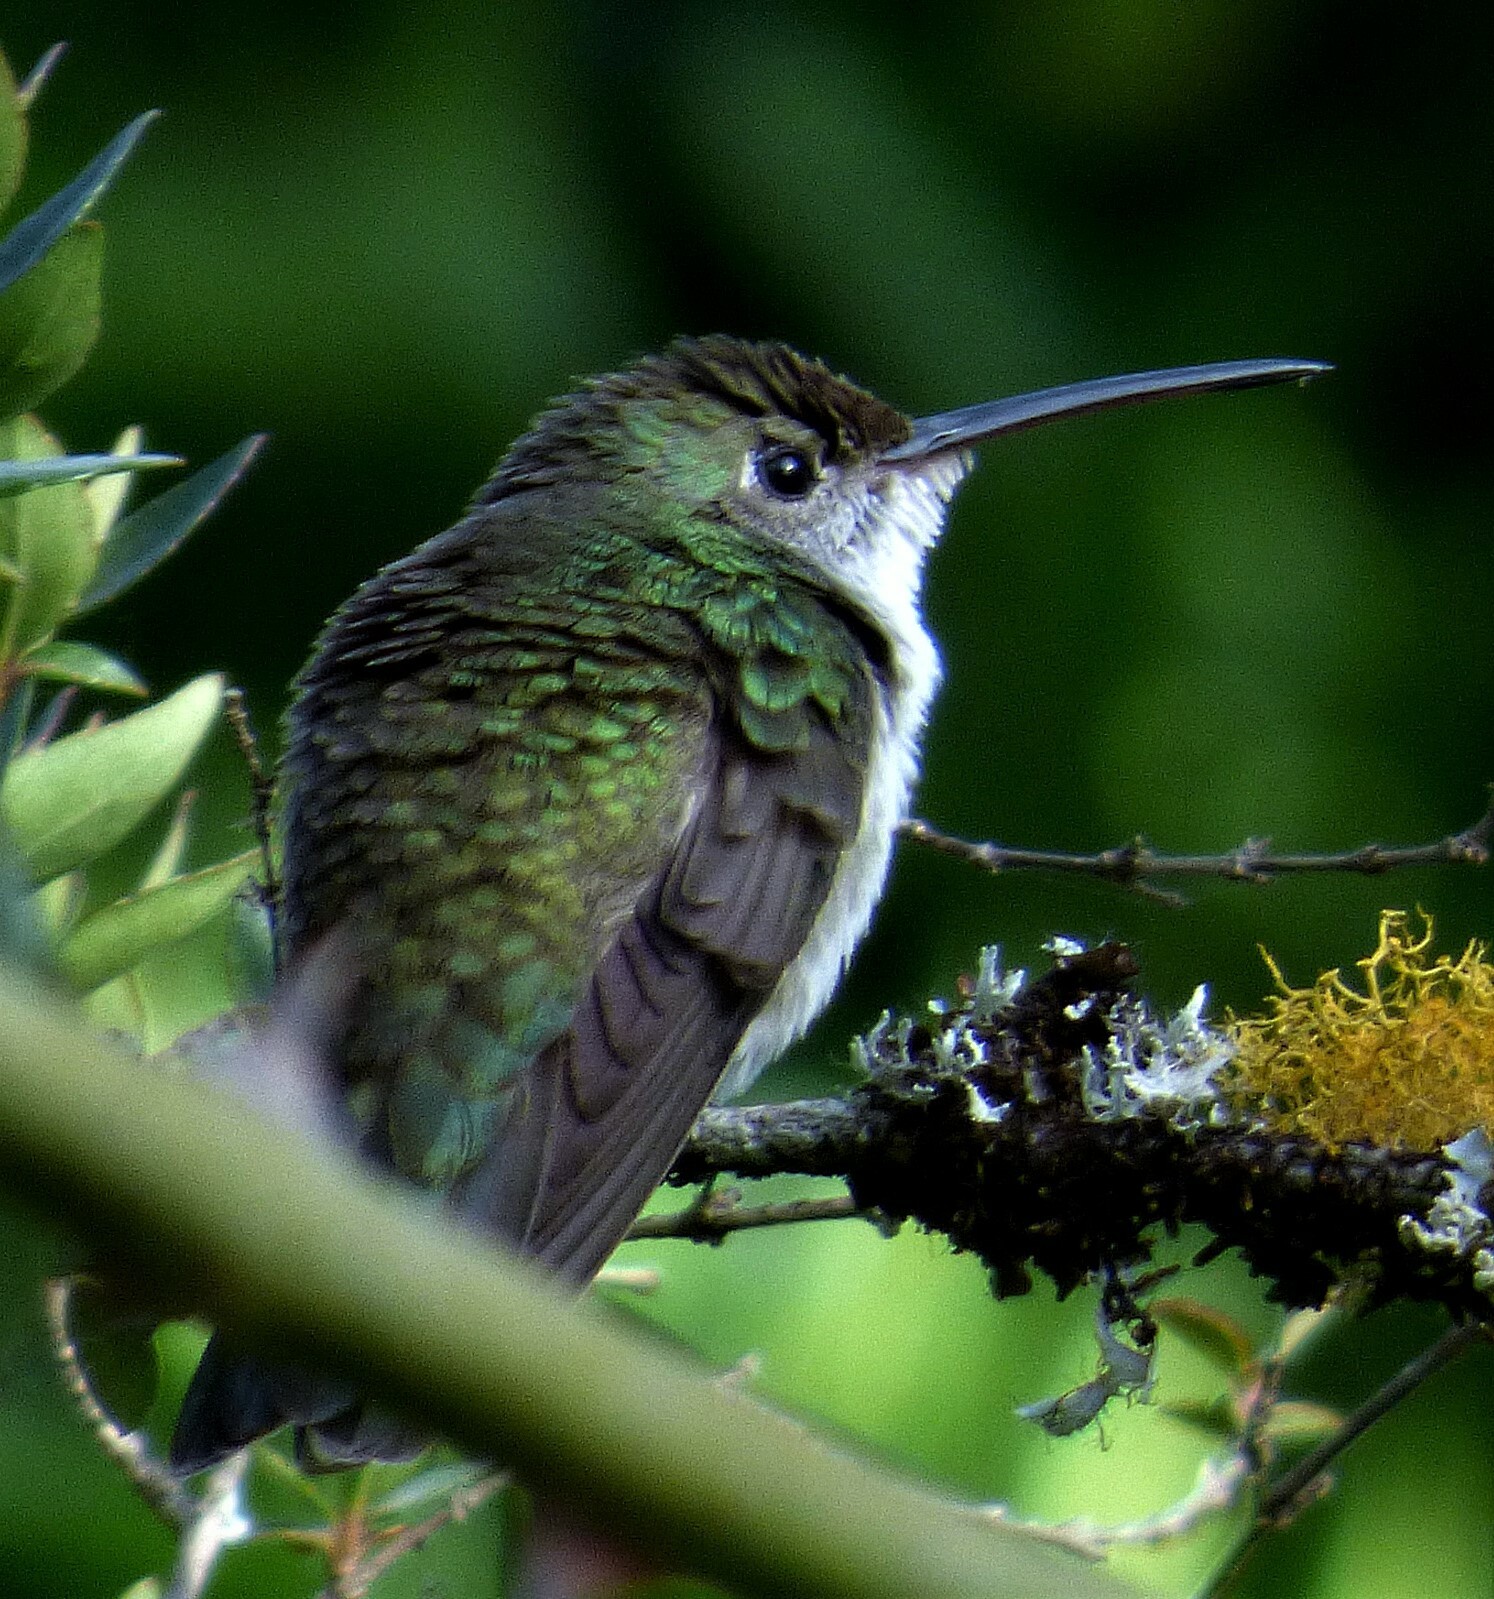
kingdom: Animalia
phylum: Chordata
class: Aves
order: Apodiformes
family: Trochilidae
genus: Elliotomyia
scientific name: Elliotomyia chionogaster
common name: White-bellied hummingbird
